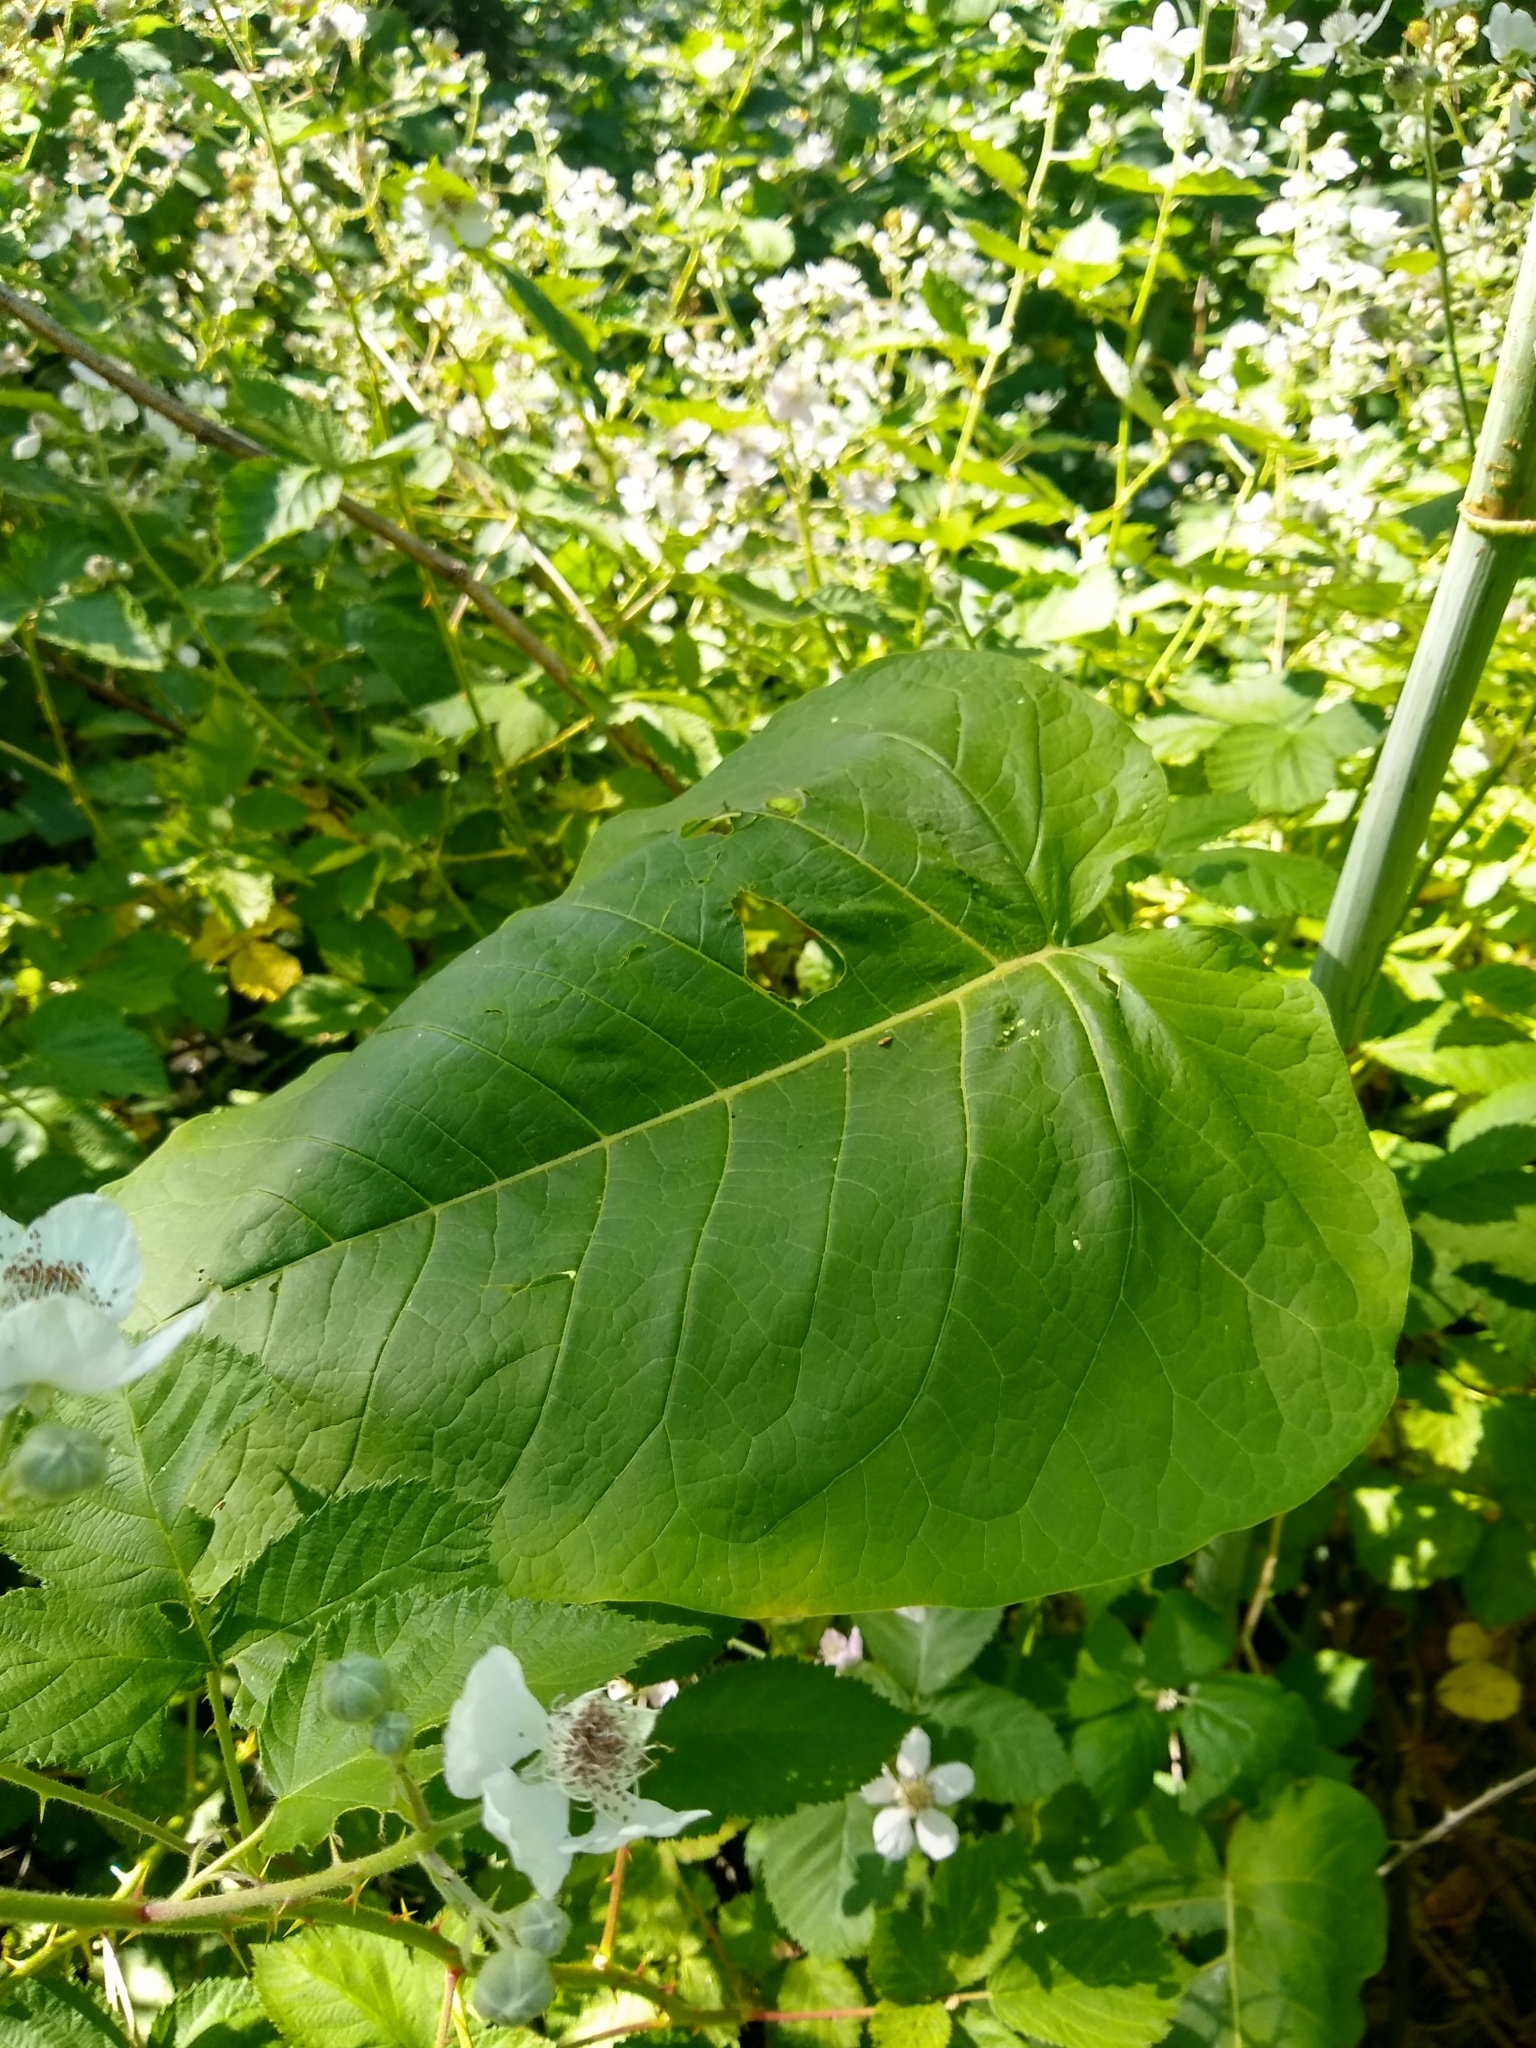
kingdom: Plantae
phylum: Tracheophyta
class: Magnoliopsida
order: Caryophyllales
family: Polygonaceae
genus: Reynoutria
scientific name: Reynoutria sachalinensis
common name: Giant knotweed
